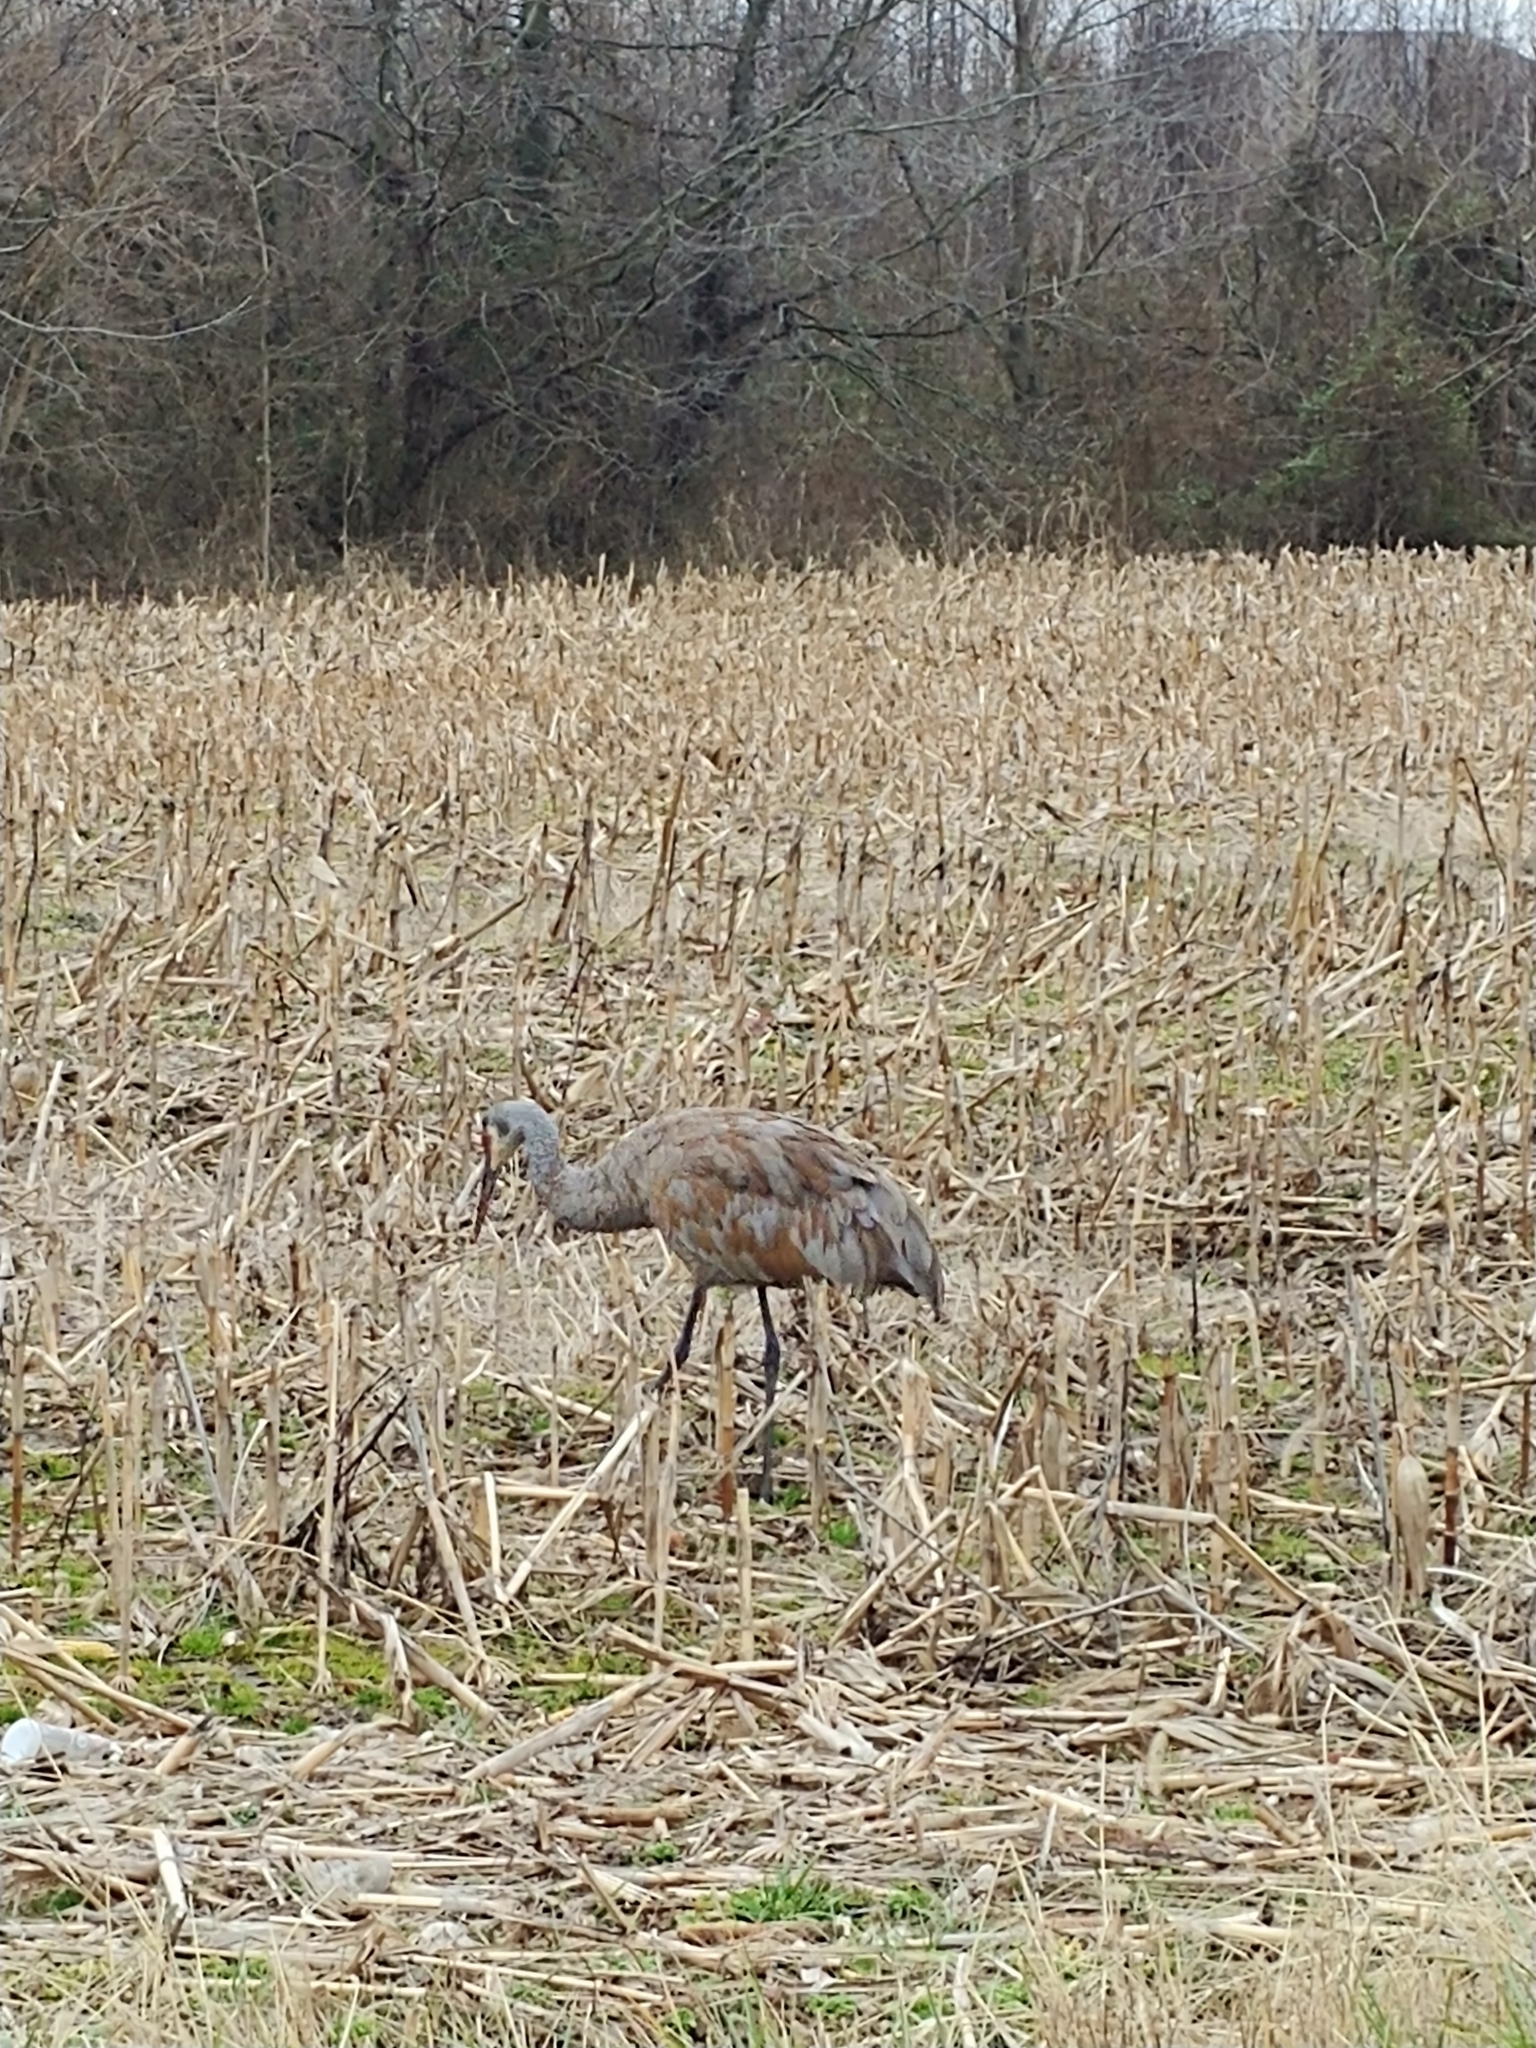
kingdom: Animalia
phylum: Chordata
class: Aves
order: Gruiformes
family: Gruidae
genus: Grus
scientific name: Grus canadensis
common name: Sandhill crane
